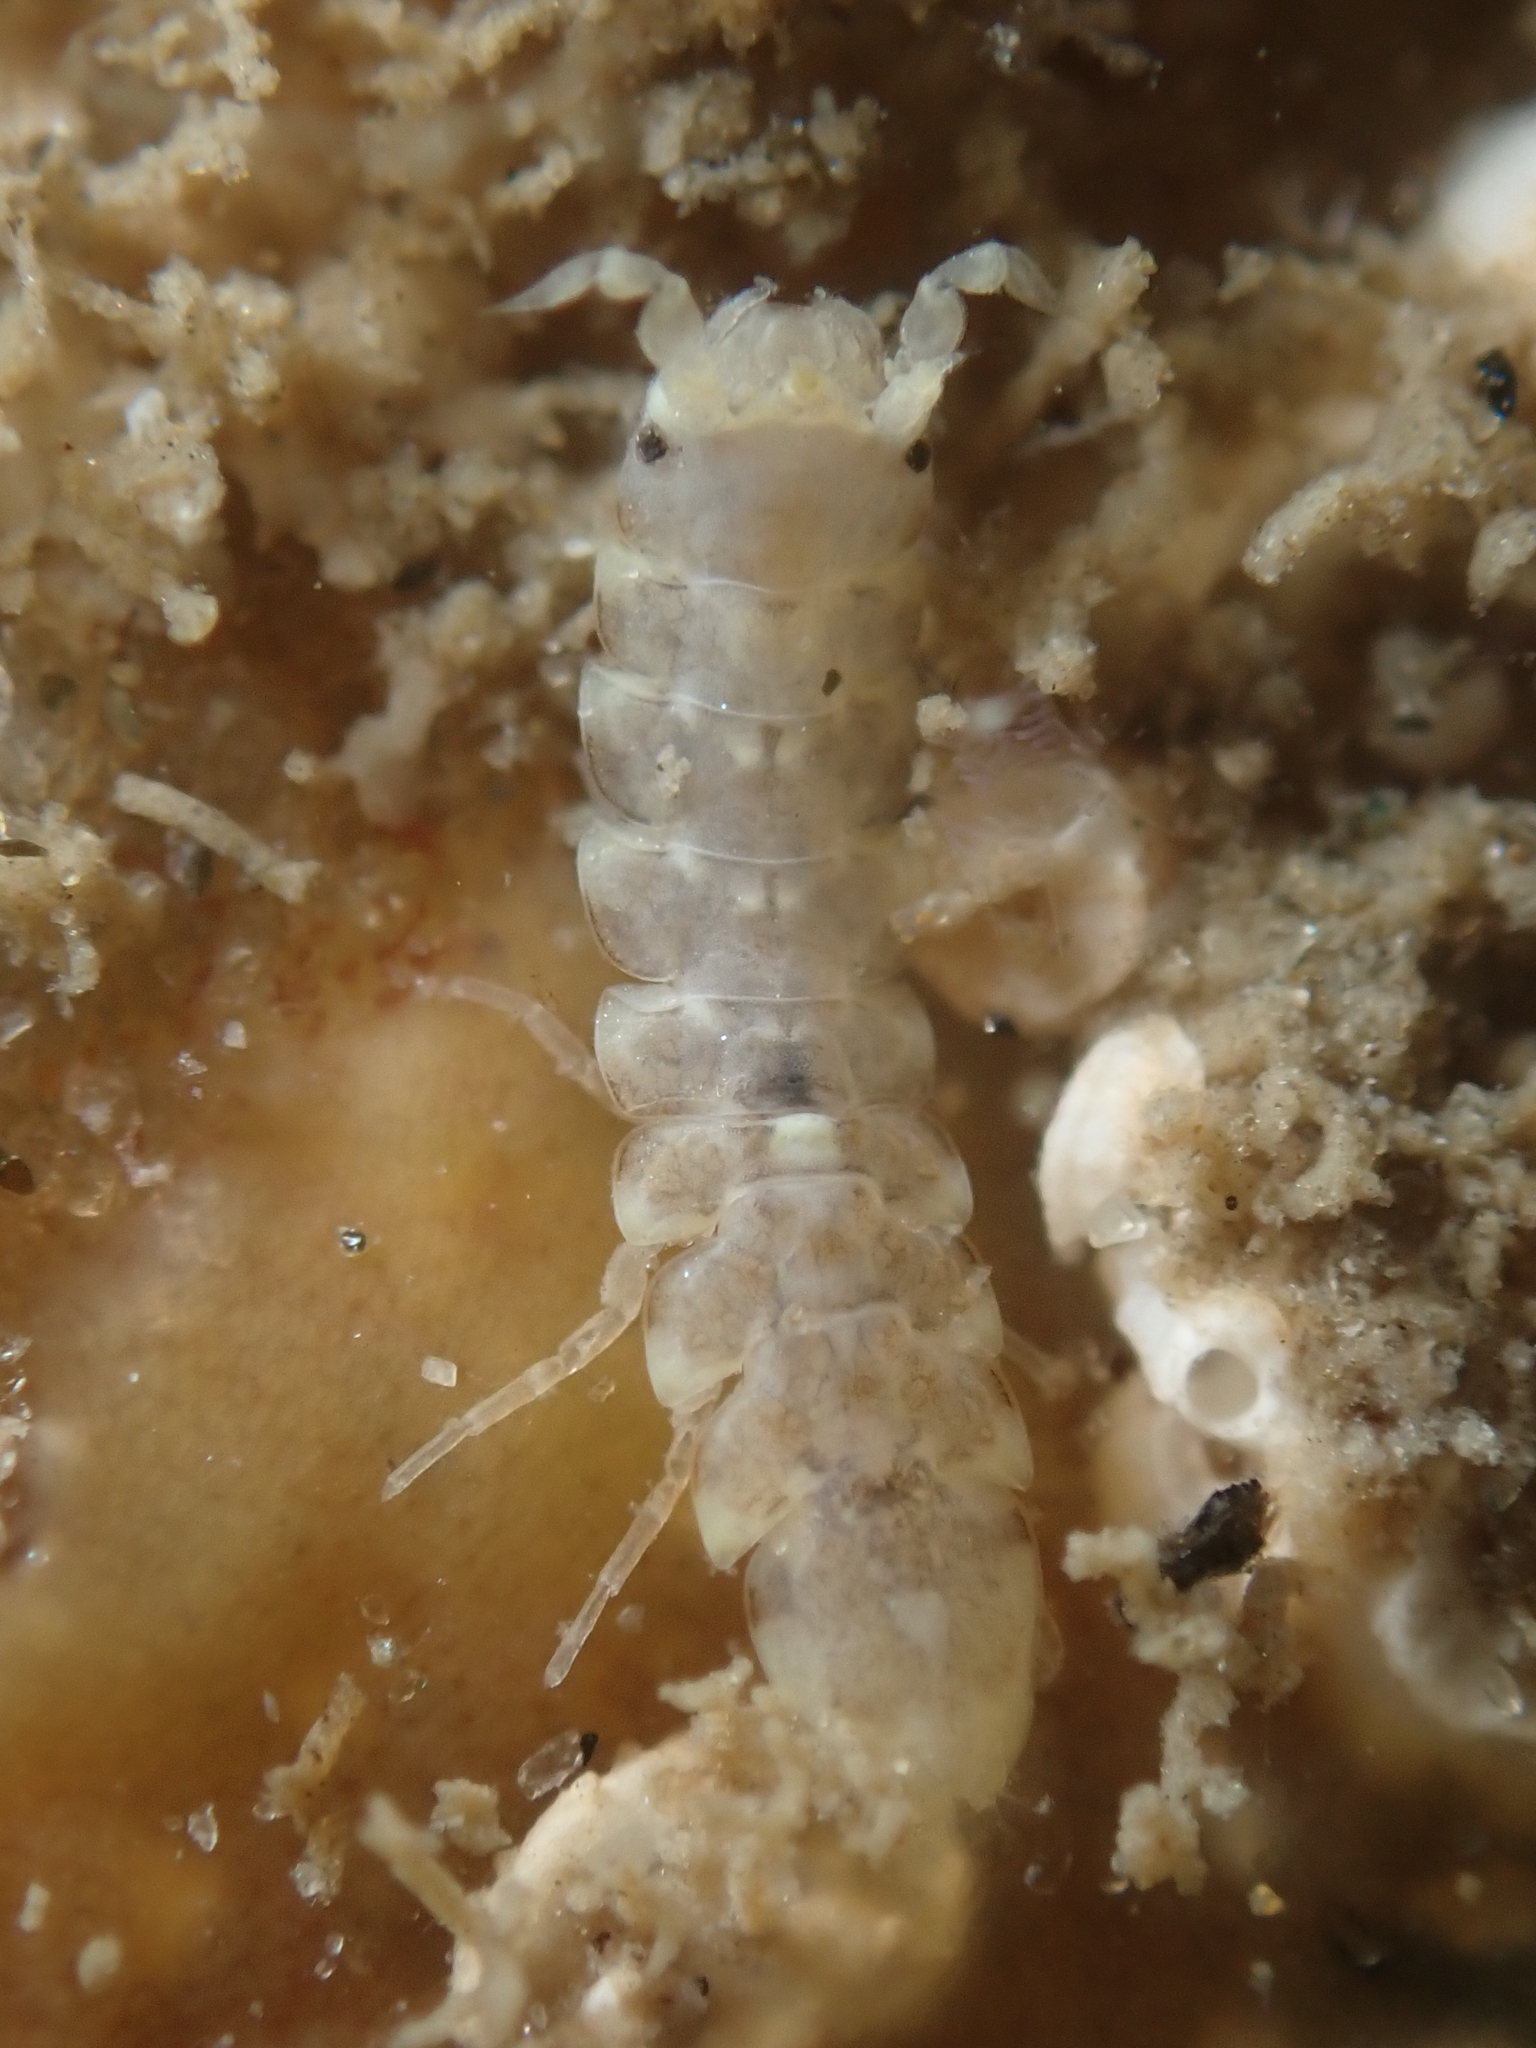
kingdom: Animalia
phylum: Arthropoda
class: Malacostraca
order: Isopoda
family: Joeropsididae
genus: Joeropsis
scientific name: Joeropsis dubia
